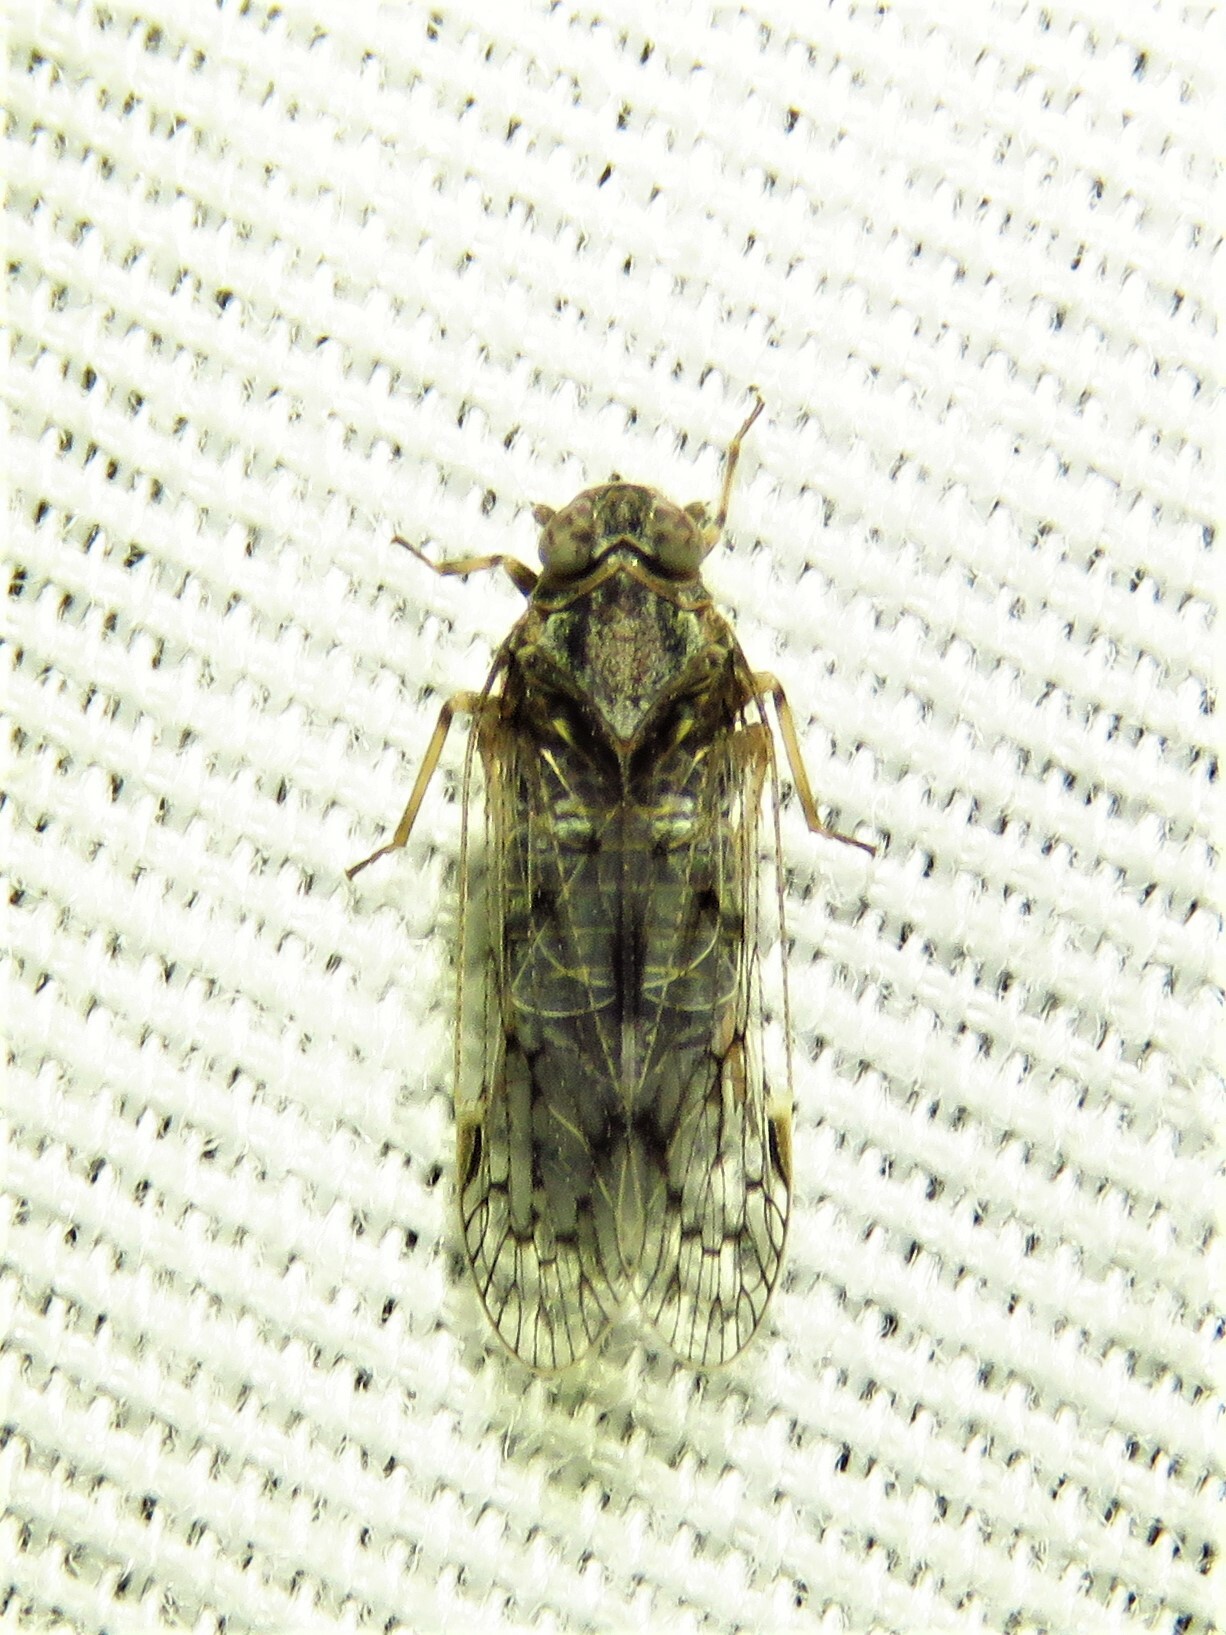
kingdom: Animalia
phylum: Arthropoda
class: Insecta
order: Hemiptera
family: Cixiidae
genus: Melanoliarus
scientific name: Melanoliarus aridus
